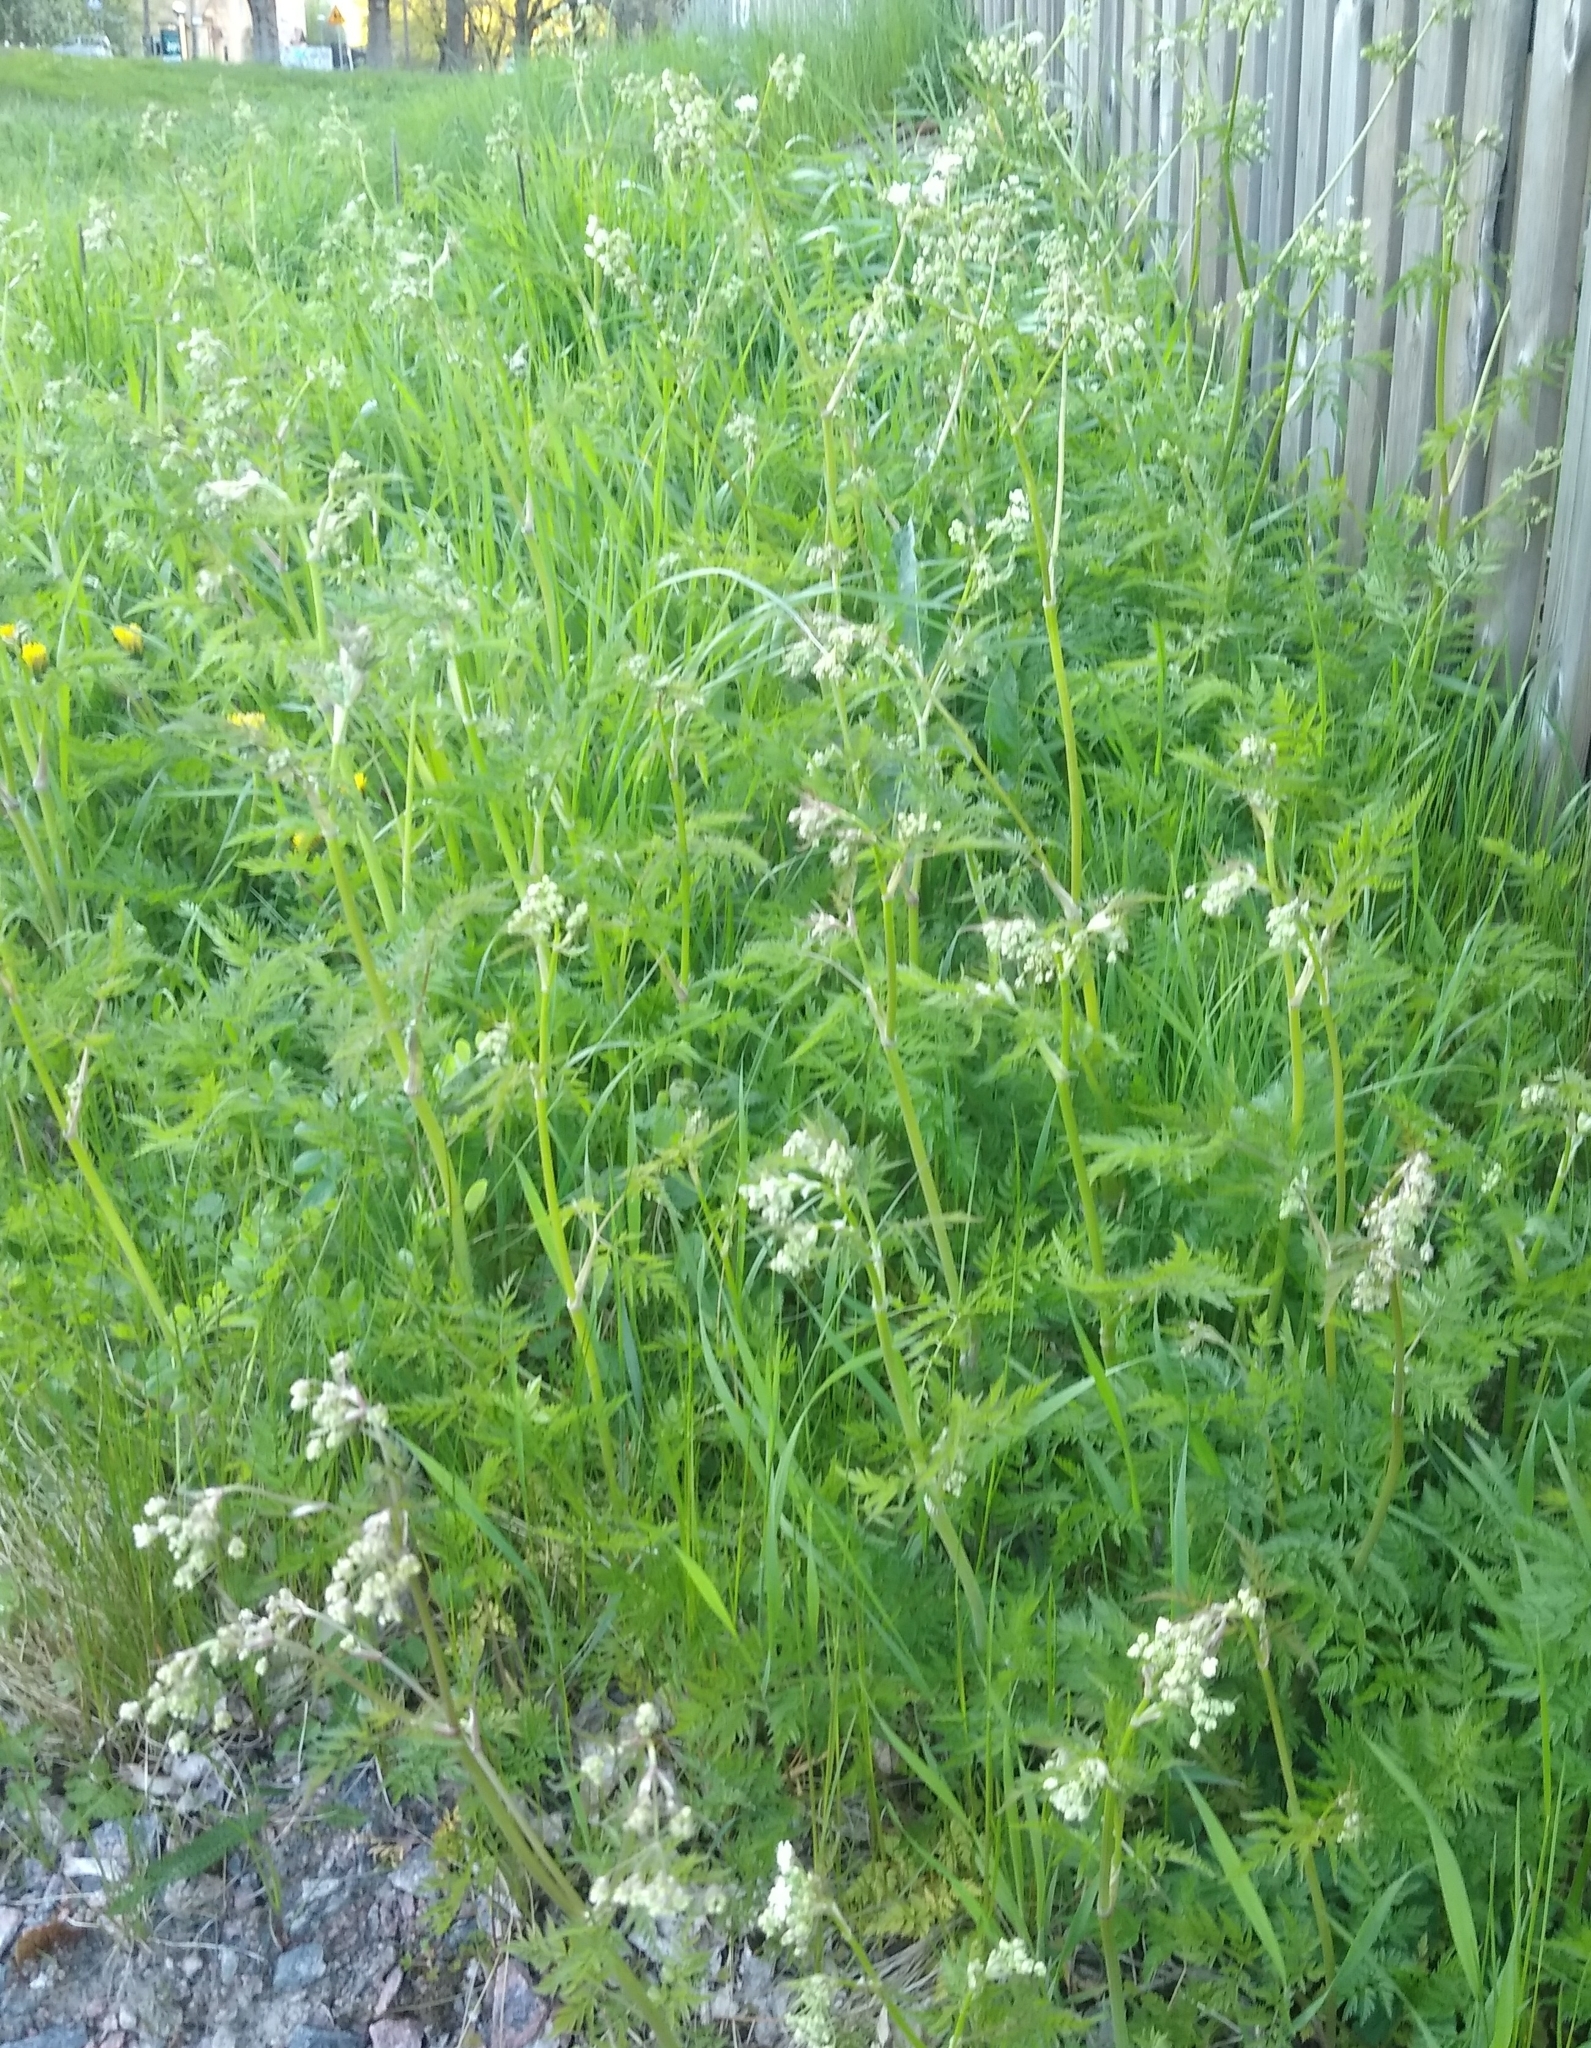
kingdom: Plantae
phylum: Tracheophyta
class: Magnoliopsida
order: Apiales
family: Apiaceae
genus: Anthriscus
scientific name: Anthriscus sylvestris
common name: Cow parsley
